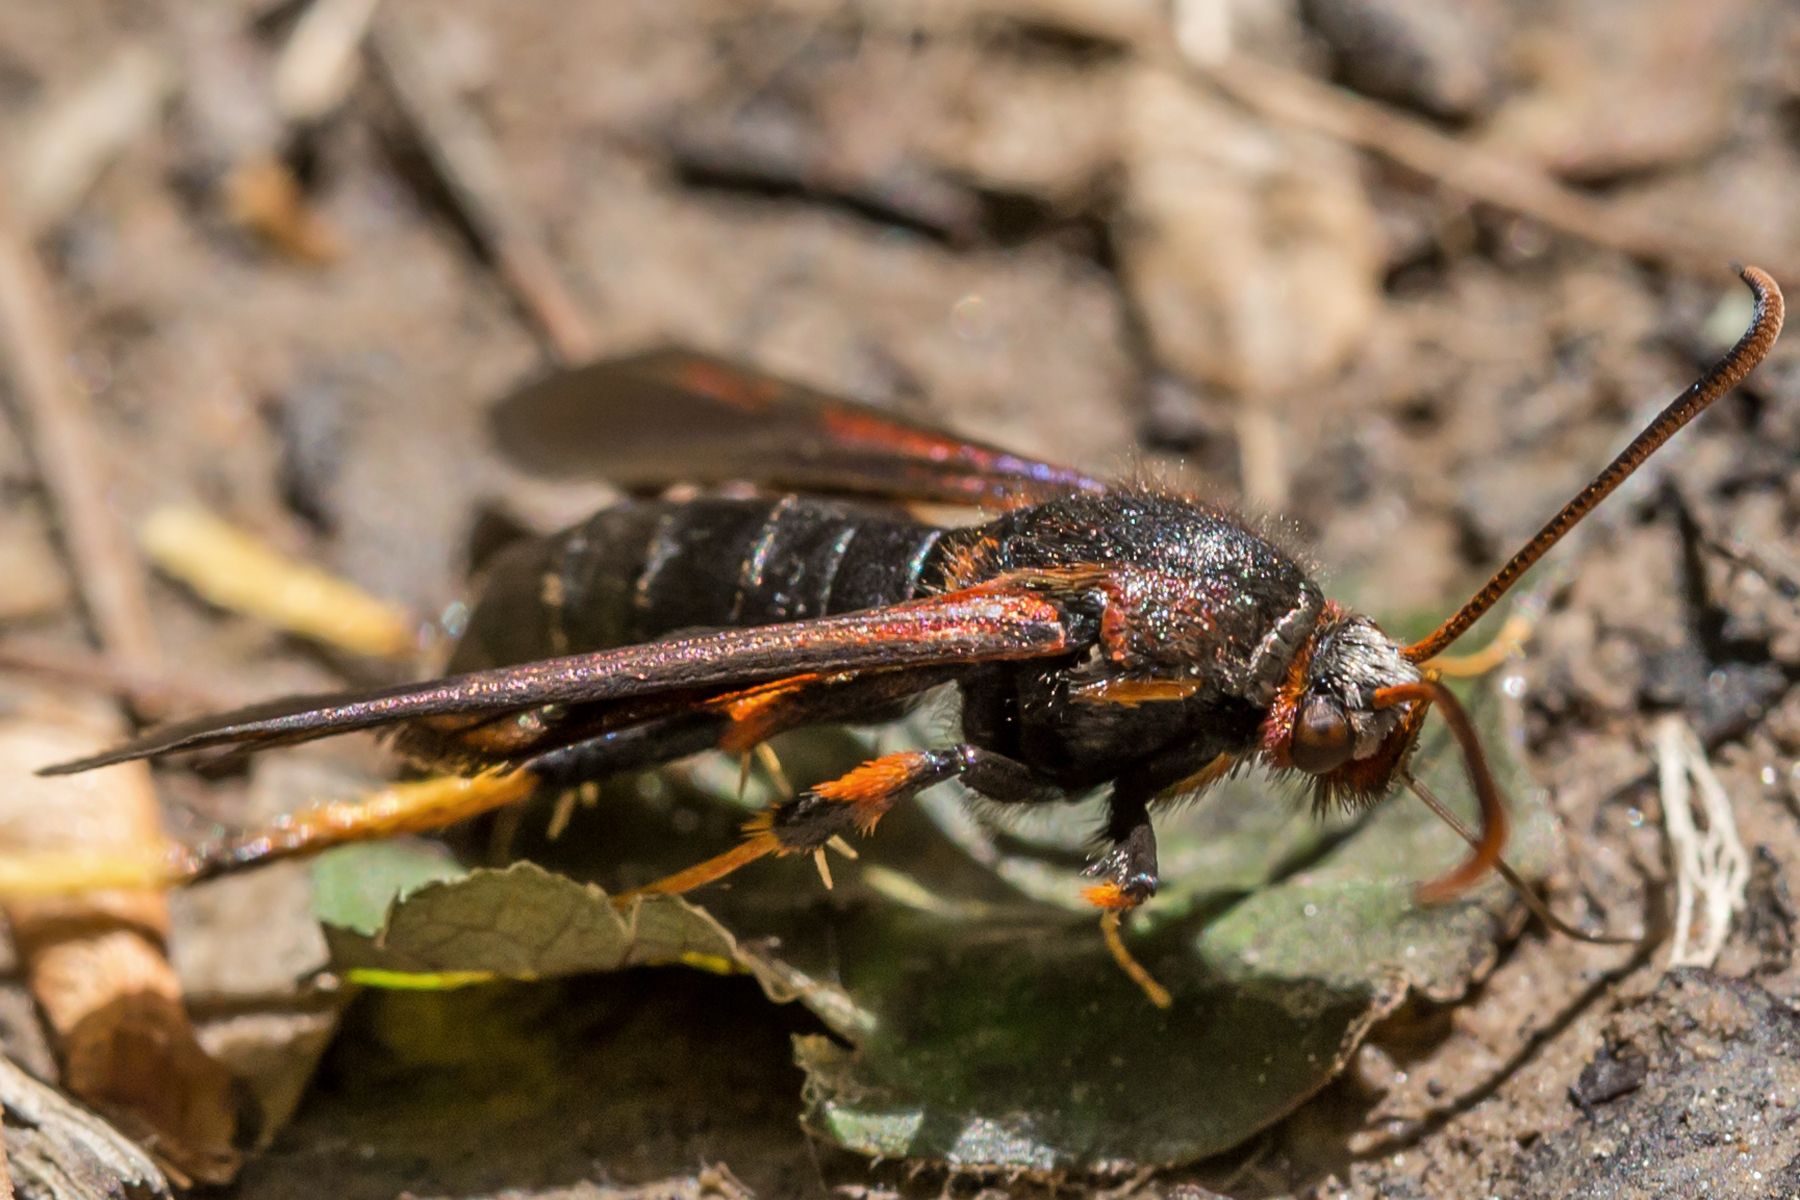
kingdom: Animalia
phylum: Arthropoda
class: Insecta
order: Lepidoptera
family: Sesiidae
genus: Podosesia
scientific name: Podosesia syringae
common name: Lilac borer moth
